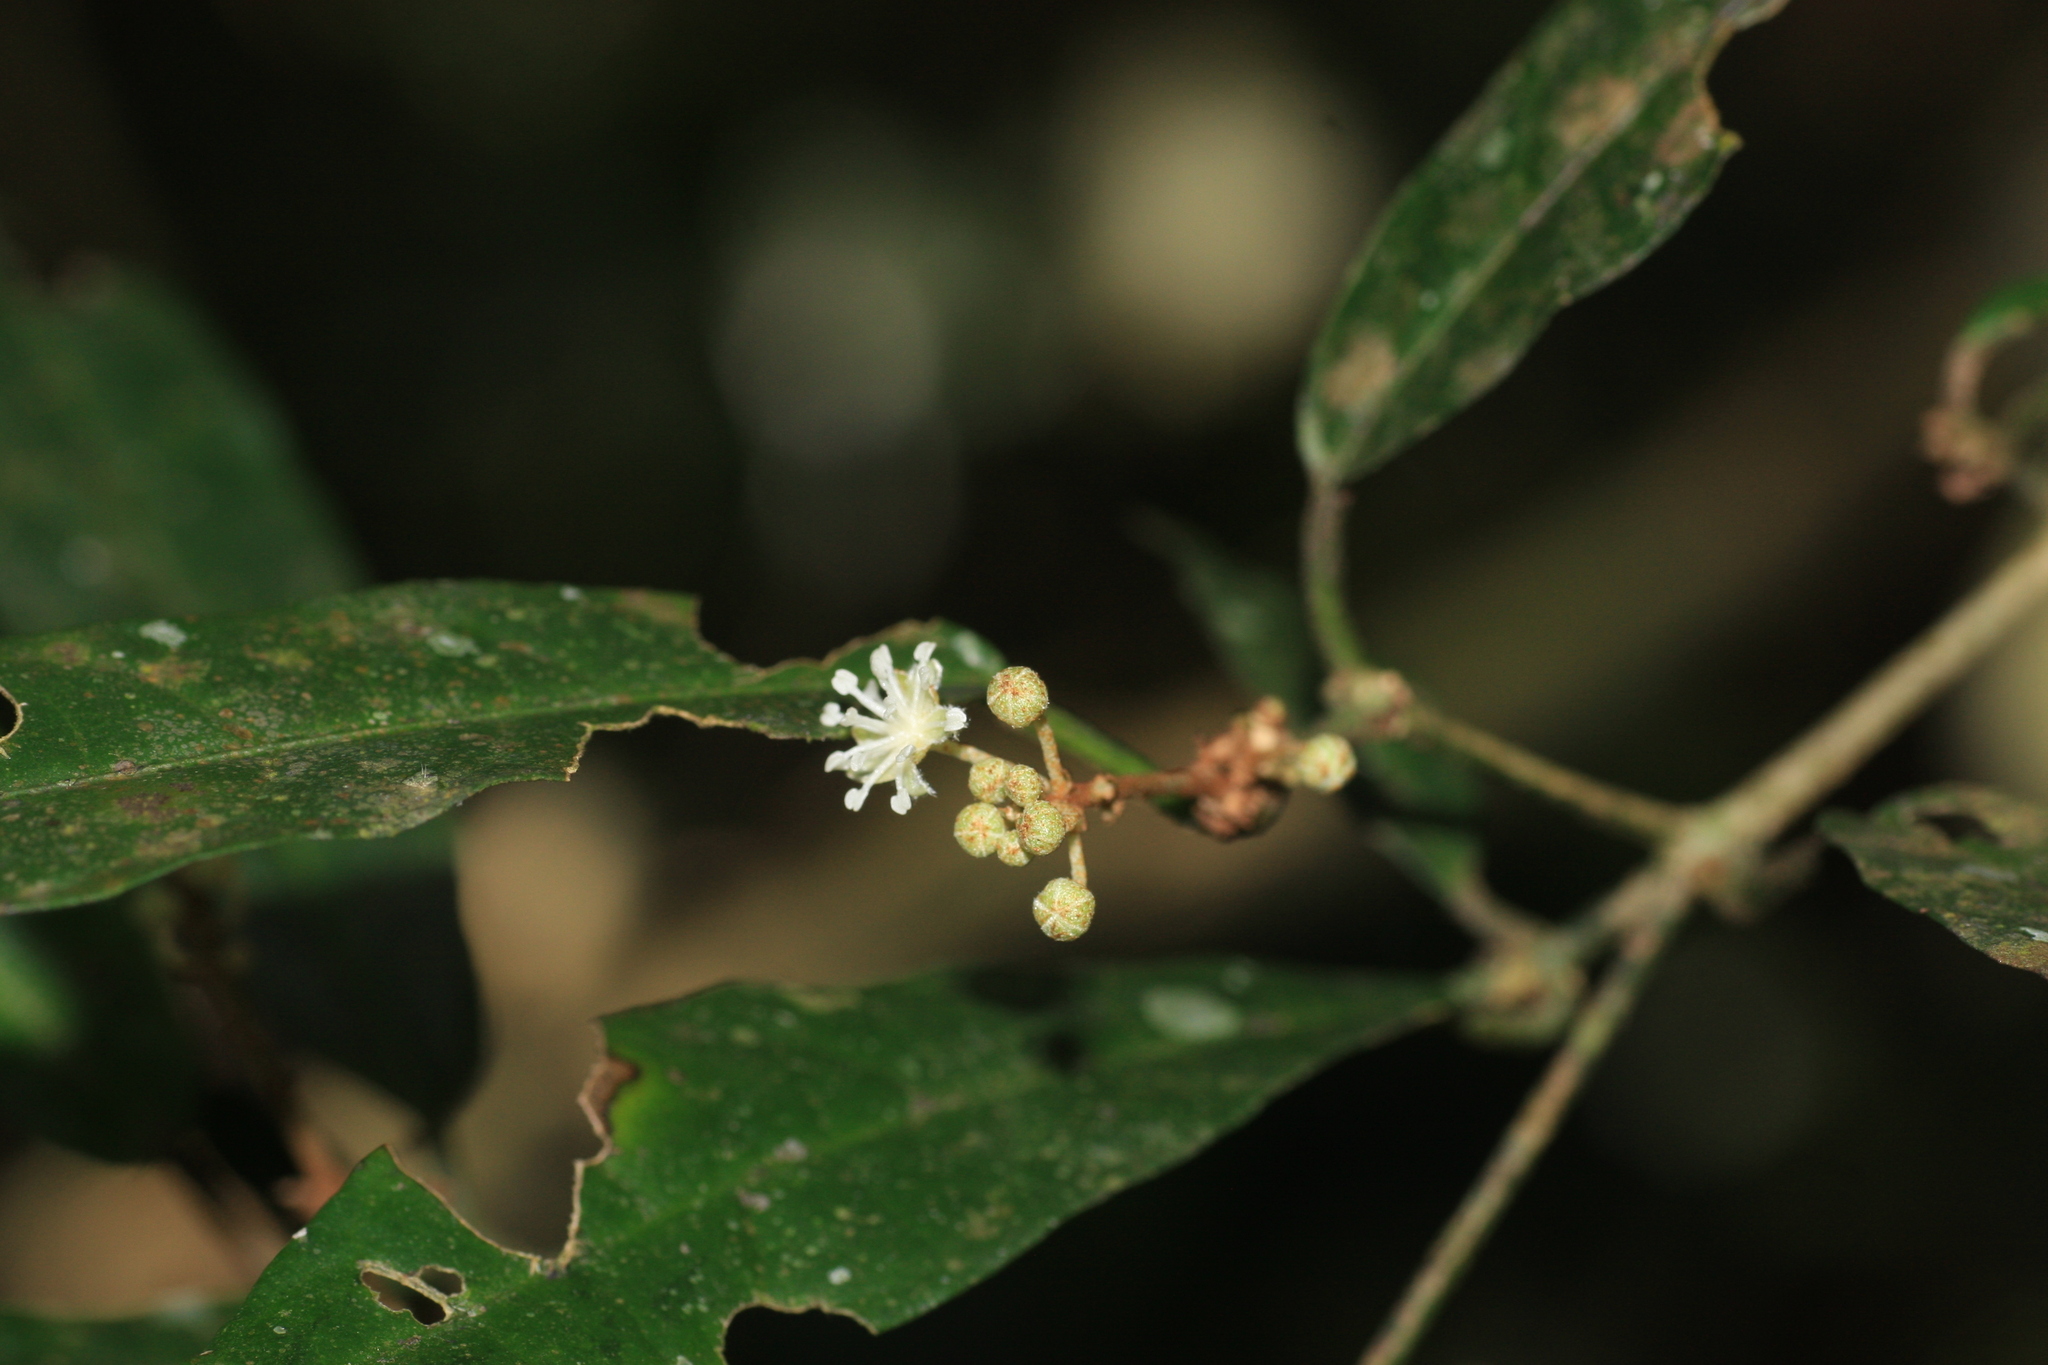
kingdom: Plantae
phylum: Tracheophyta
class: Magnoliopsida
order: Malpighiales
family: Euphorbiaceae
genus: Croton
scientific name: Croton zeylanicus
